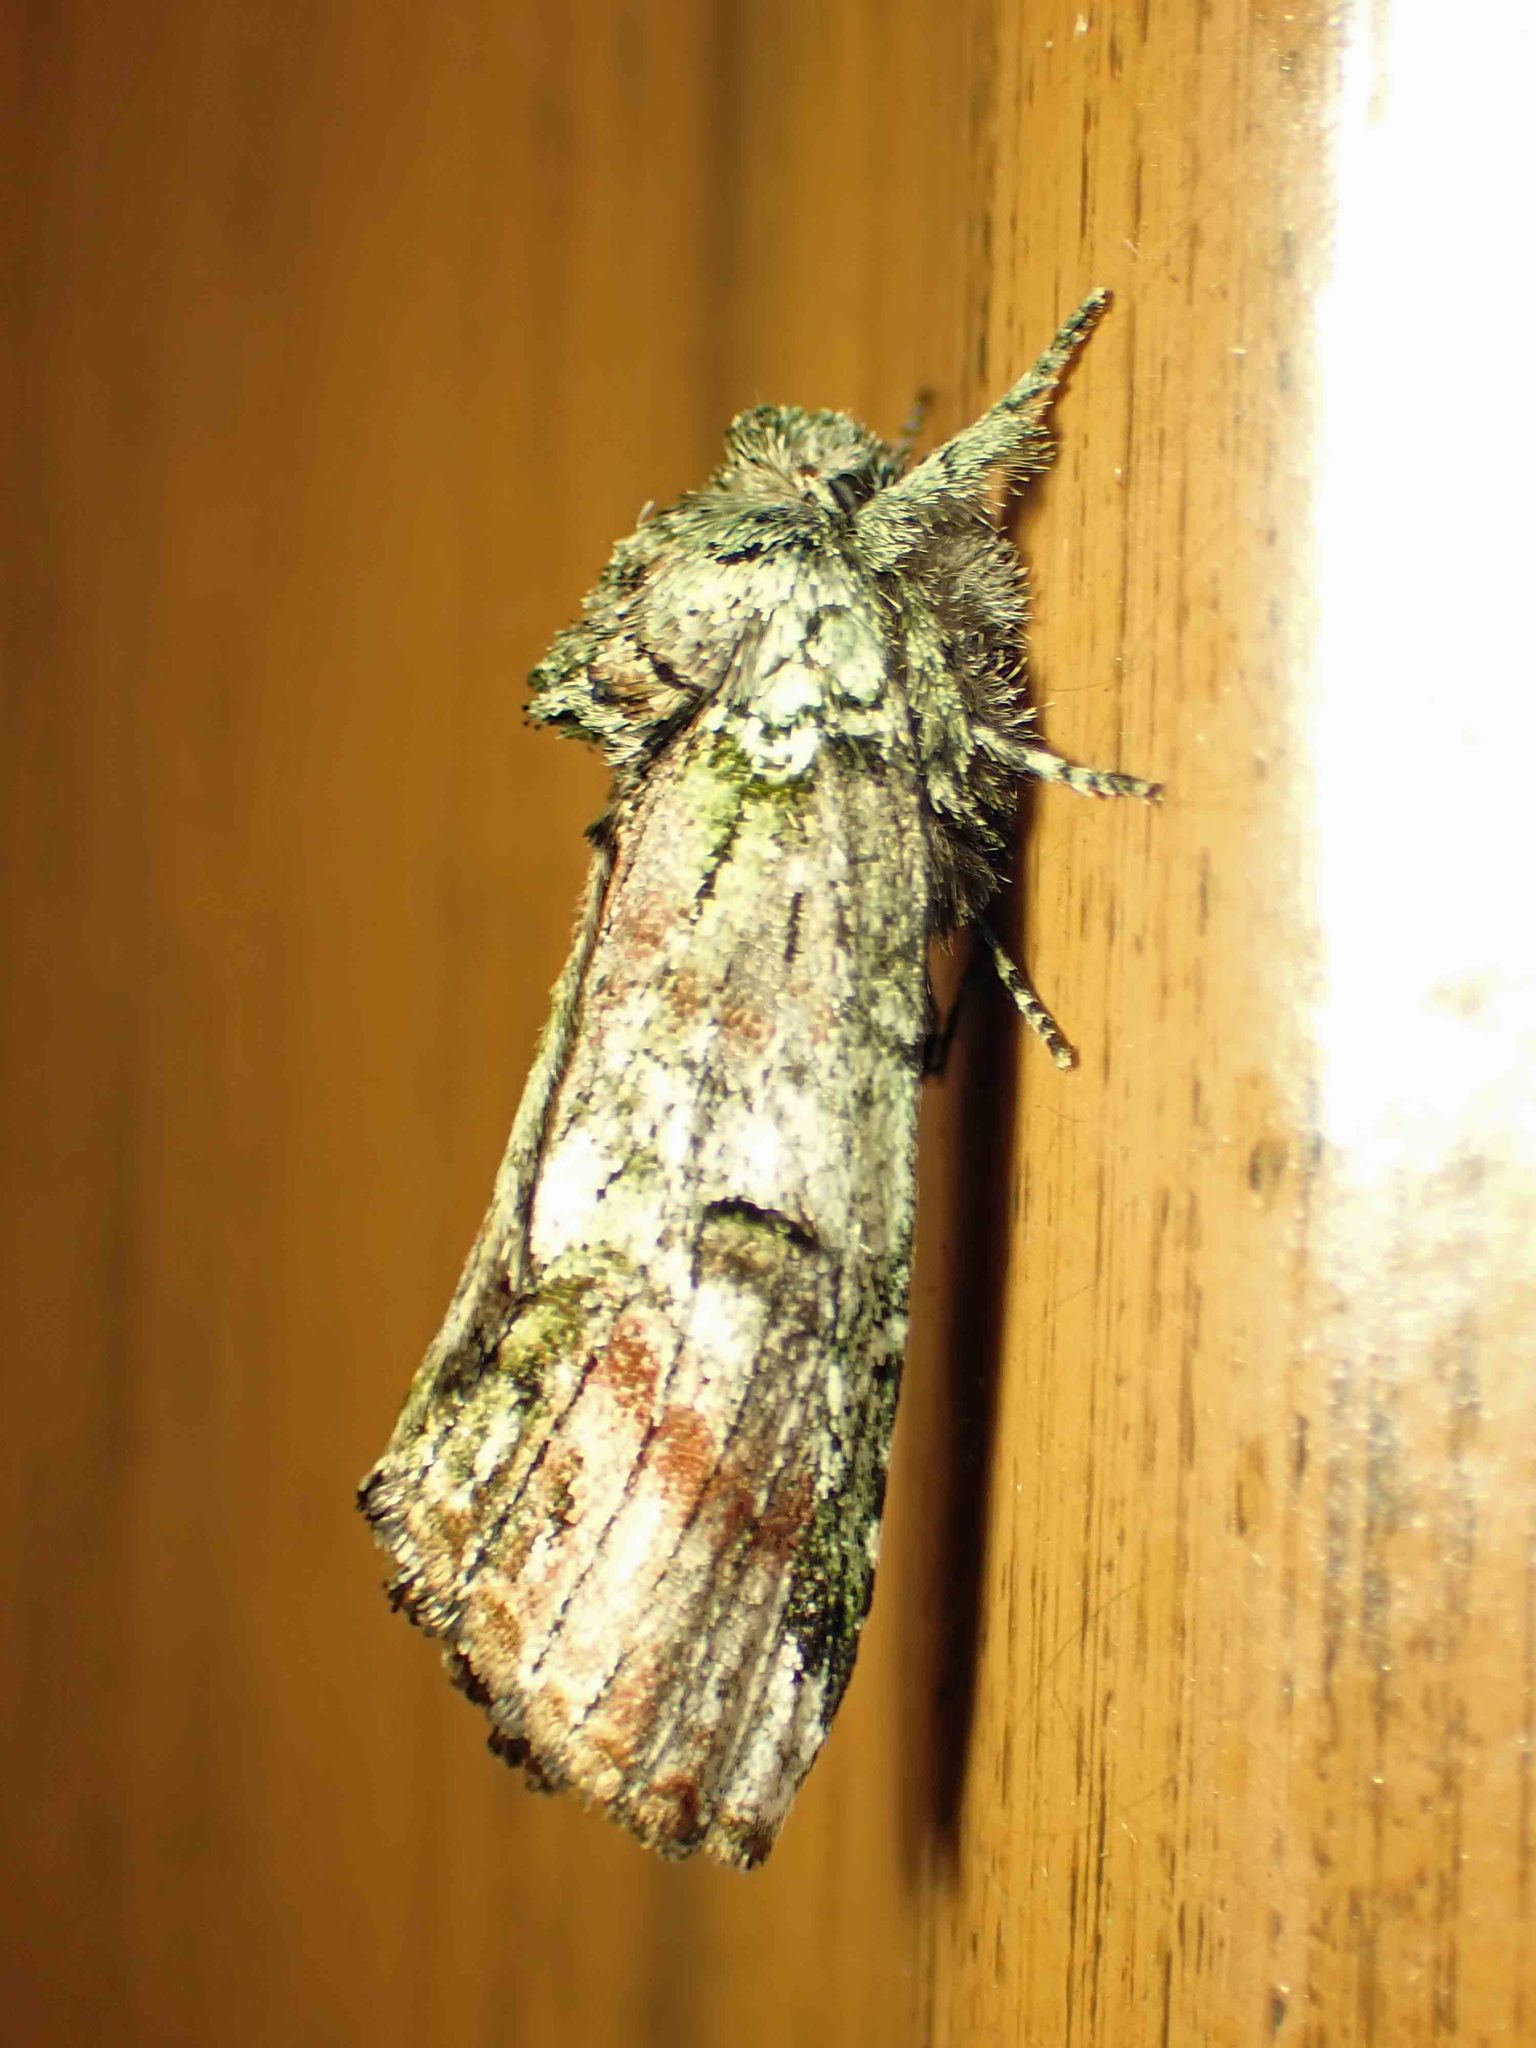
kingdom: Animalia
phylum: Arthropoda
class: Insecta
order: Lepidoptera
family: Notodontidae
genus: Schizura
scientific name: Schizura
